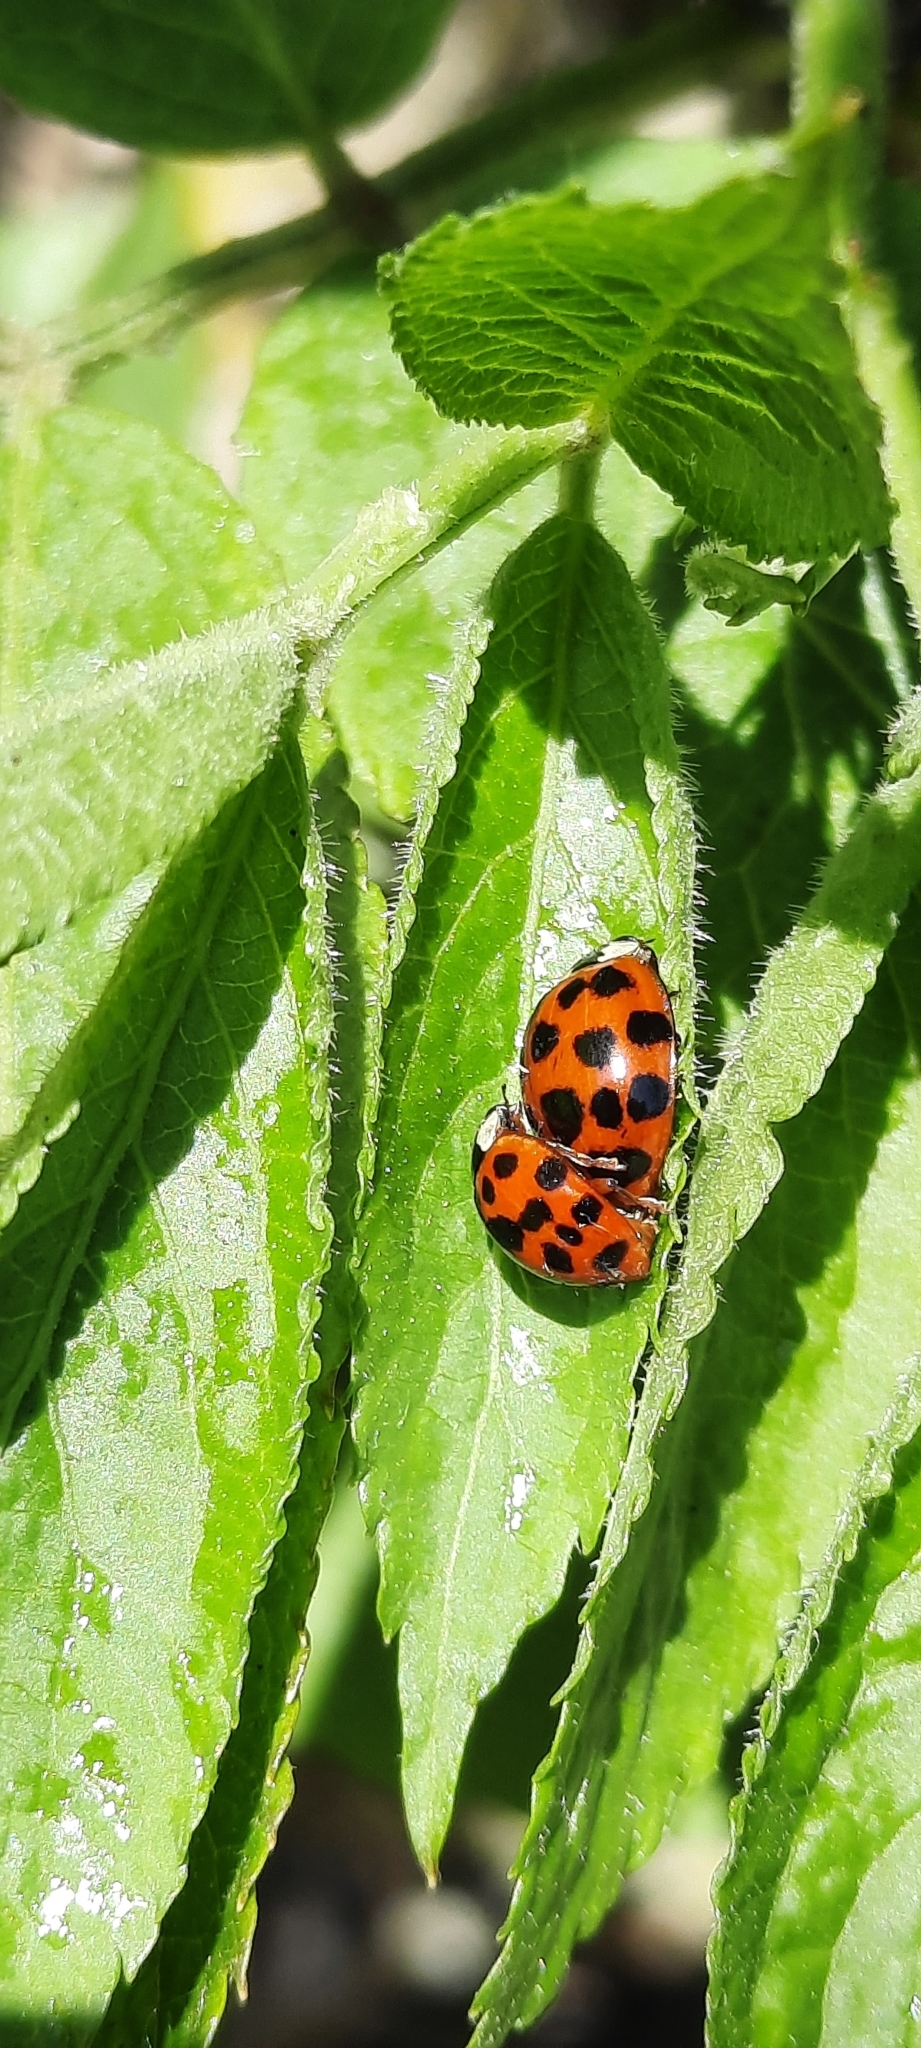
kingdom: Animalia
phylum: Arthropoda
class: Insecta
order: Coleoptera
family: Coccinellidae
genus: Harmonia
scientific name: Harmonia axyridis
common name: Harlequin ladybird
